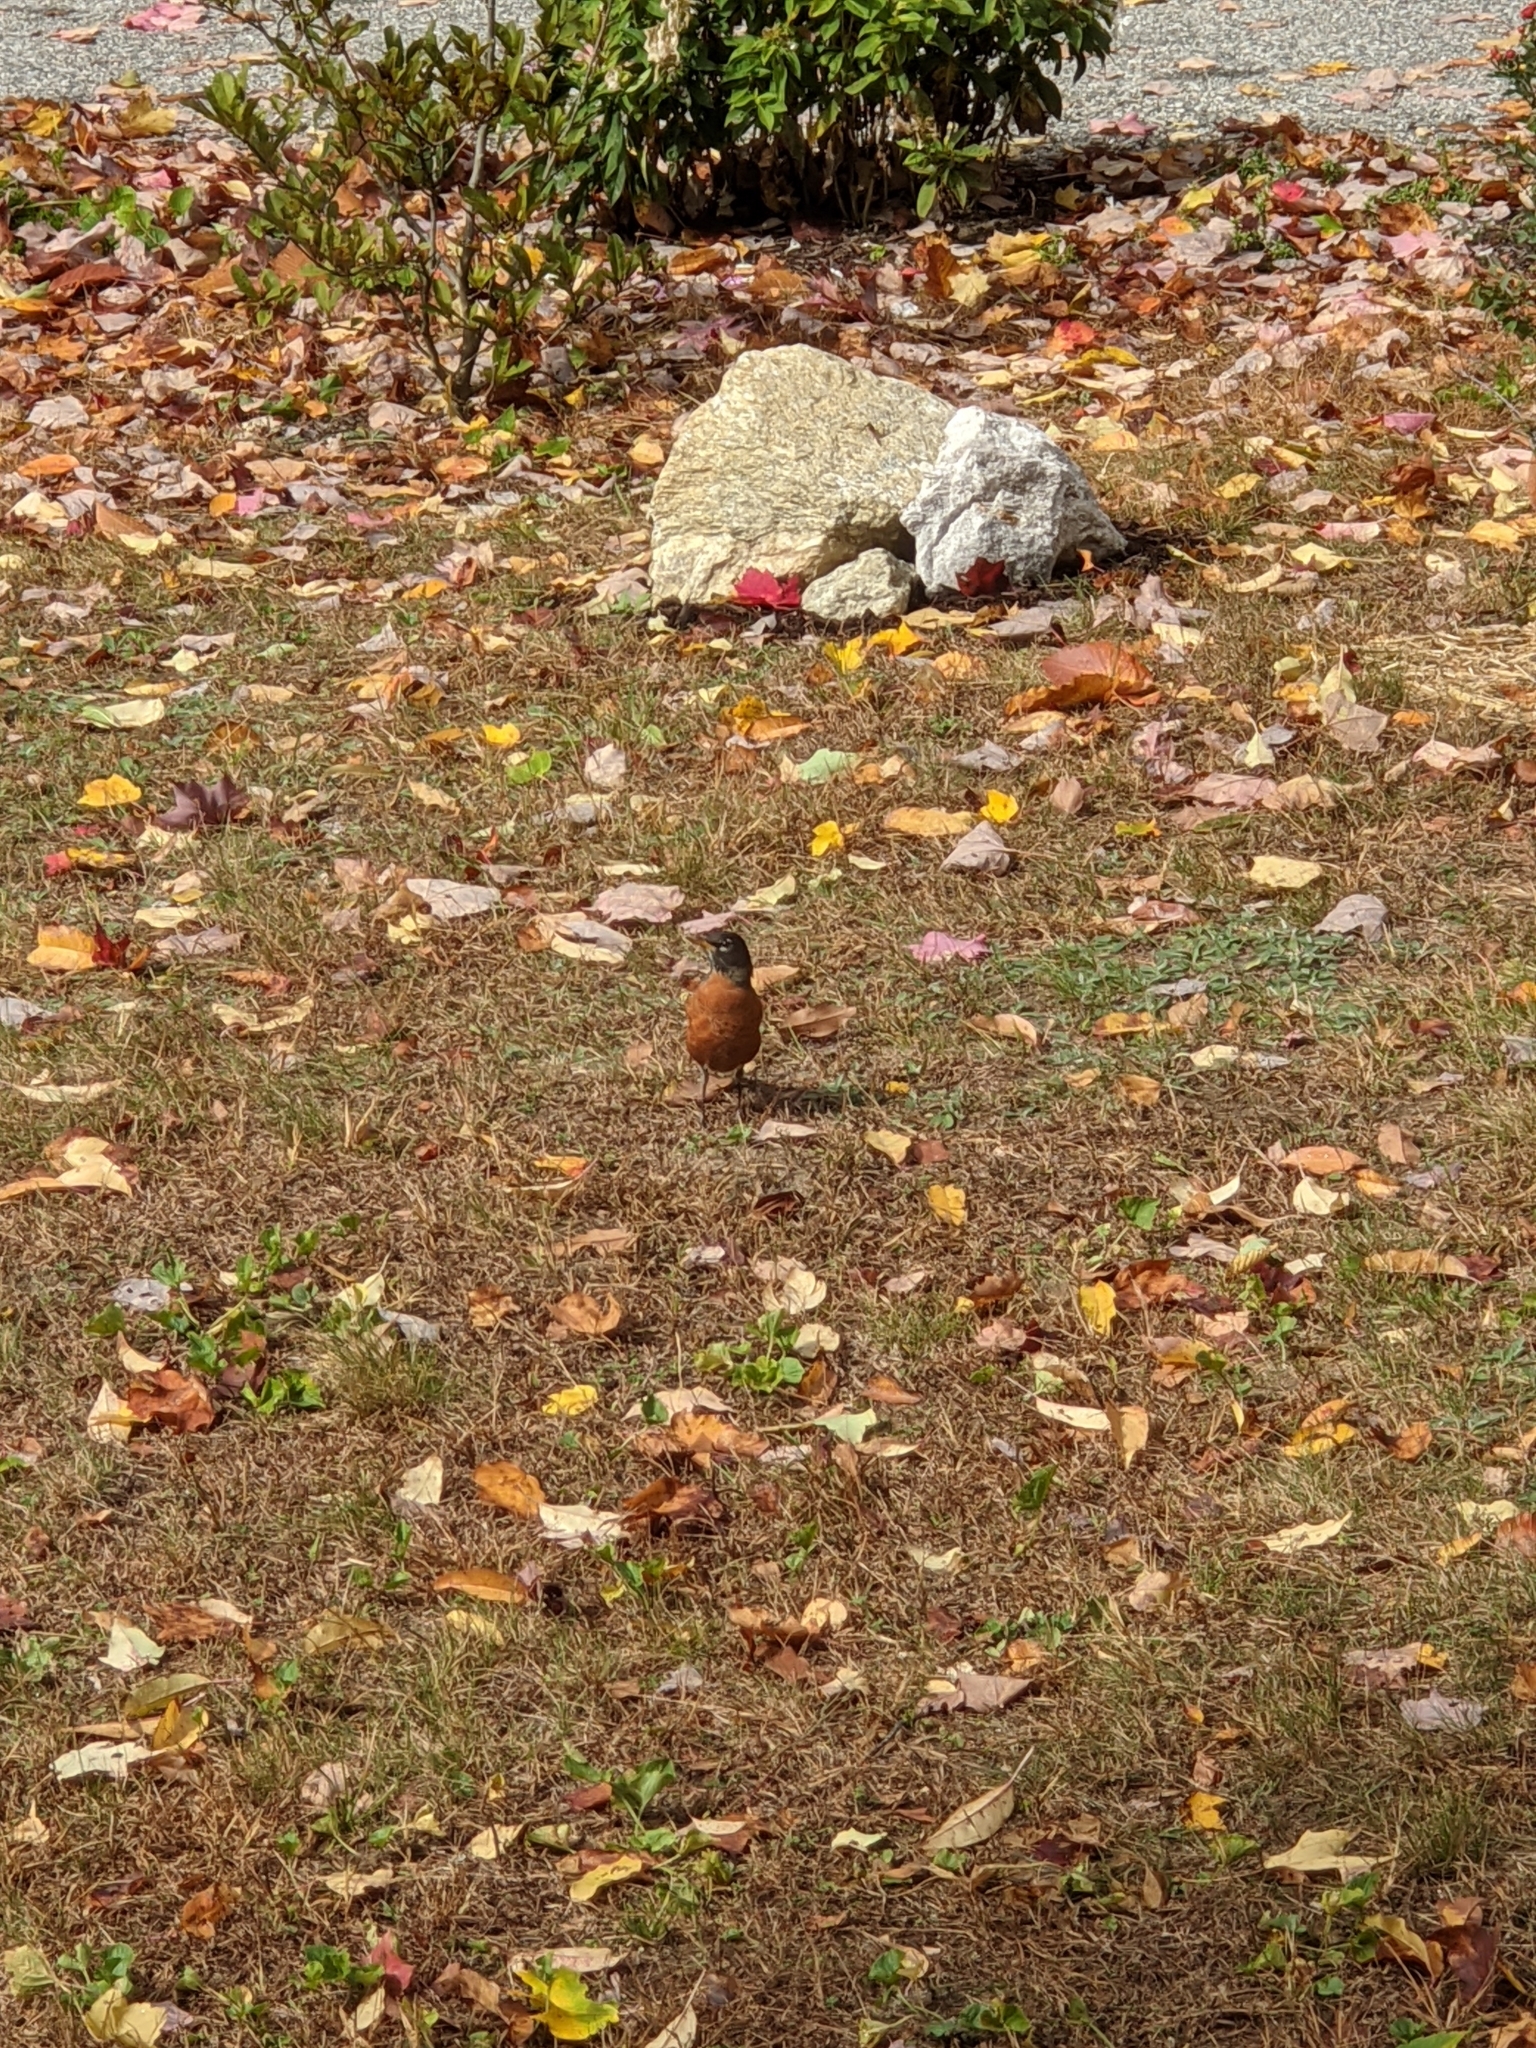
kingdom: Animalia
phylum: Chordata
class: Aves
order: Passeriformes
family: Turdidae
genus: Turdus
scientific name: Turdus migratorius
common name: American robin
